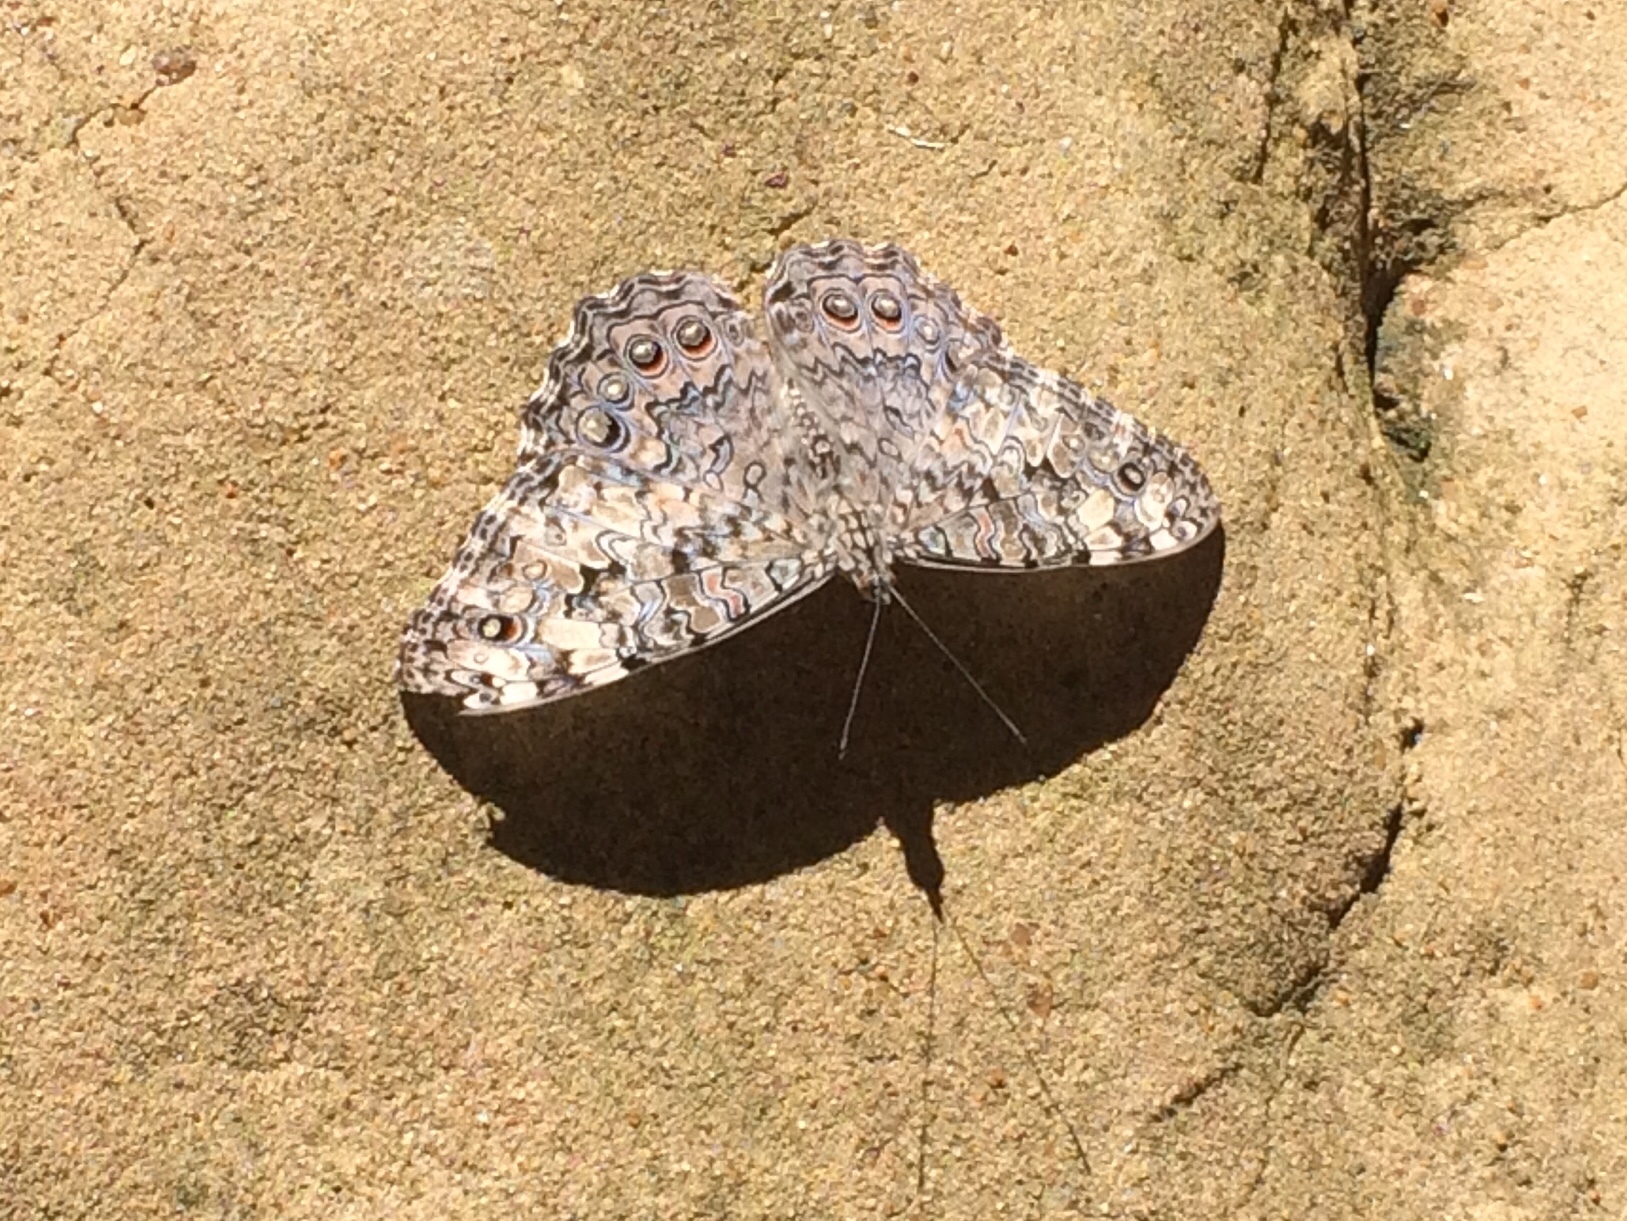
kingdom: Animalia
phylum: Arthropoda
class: Insecta
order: Lepidoptera
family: Nymphalidae
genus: Hamadryas
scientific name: Hamadryas februa
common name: Gray cracker
